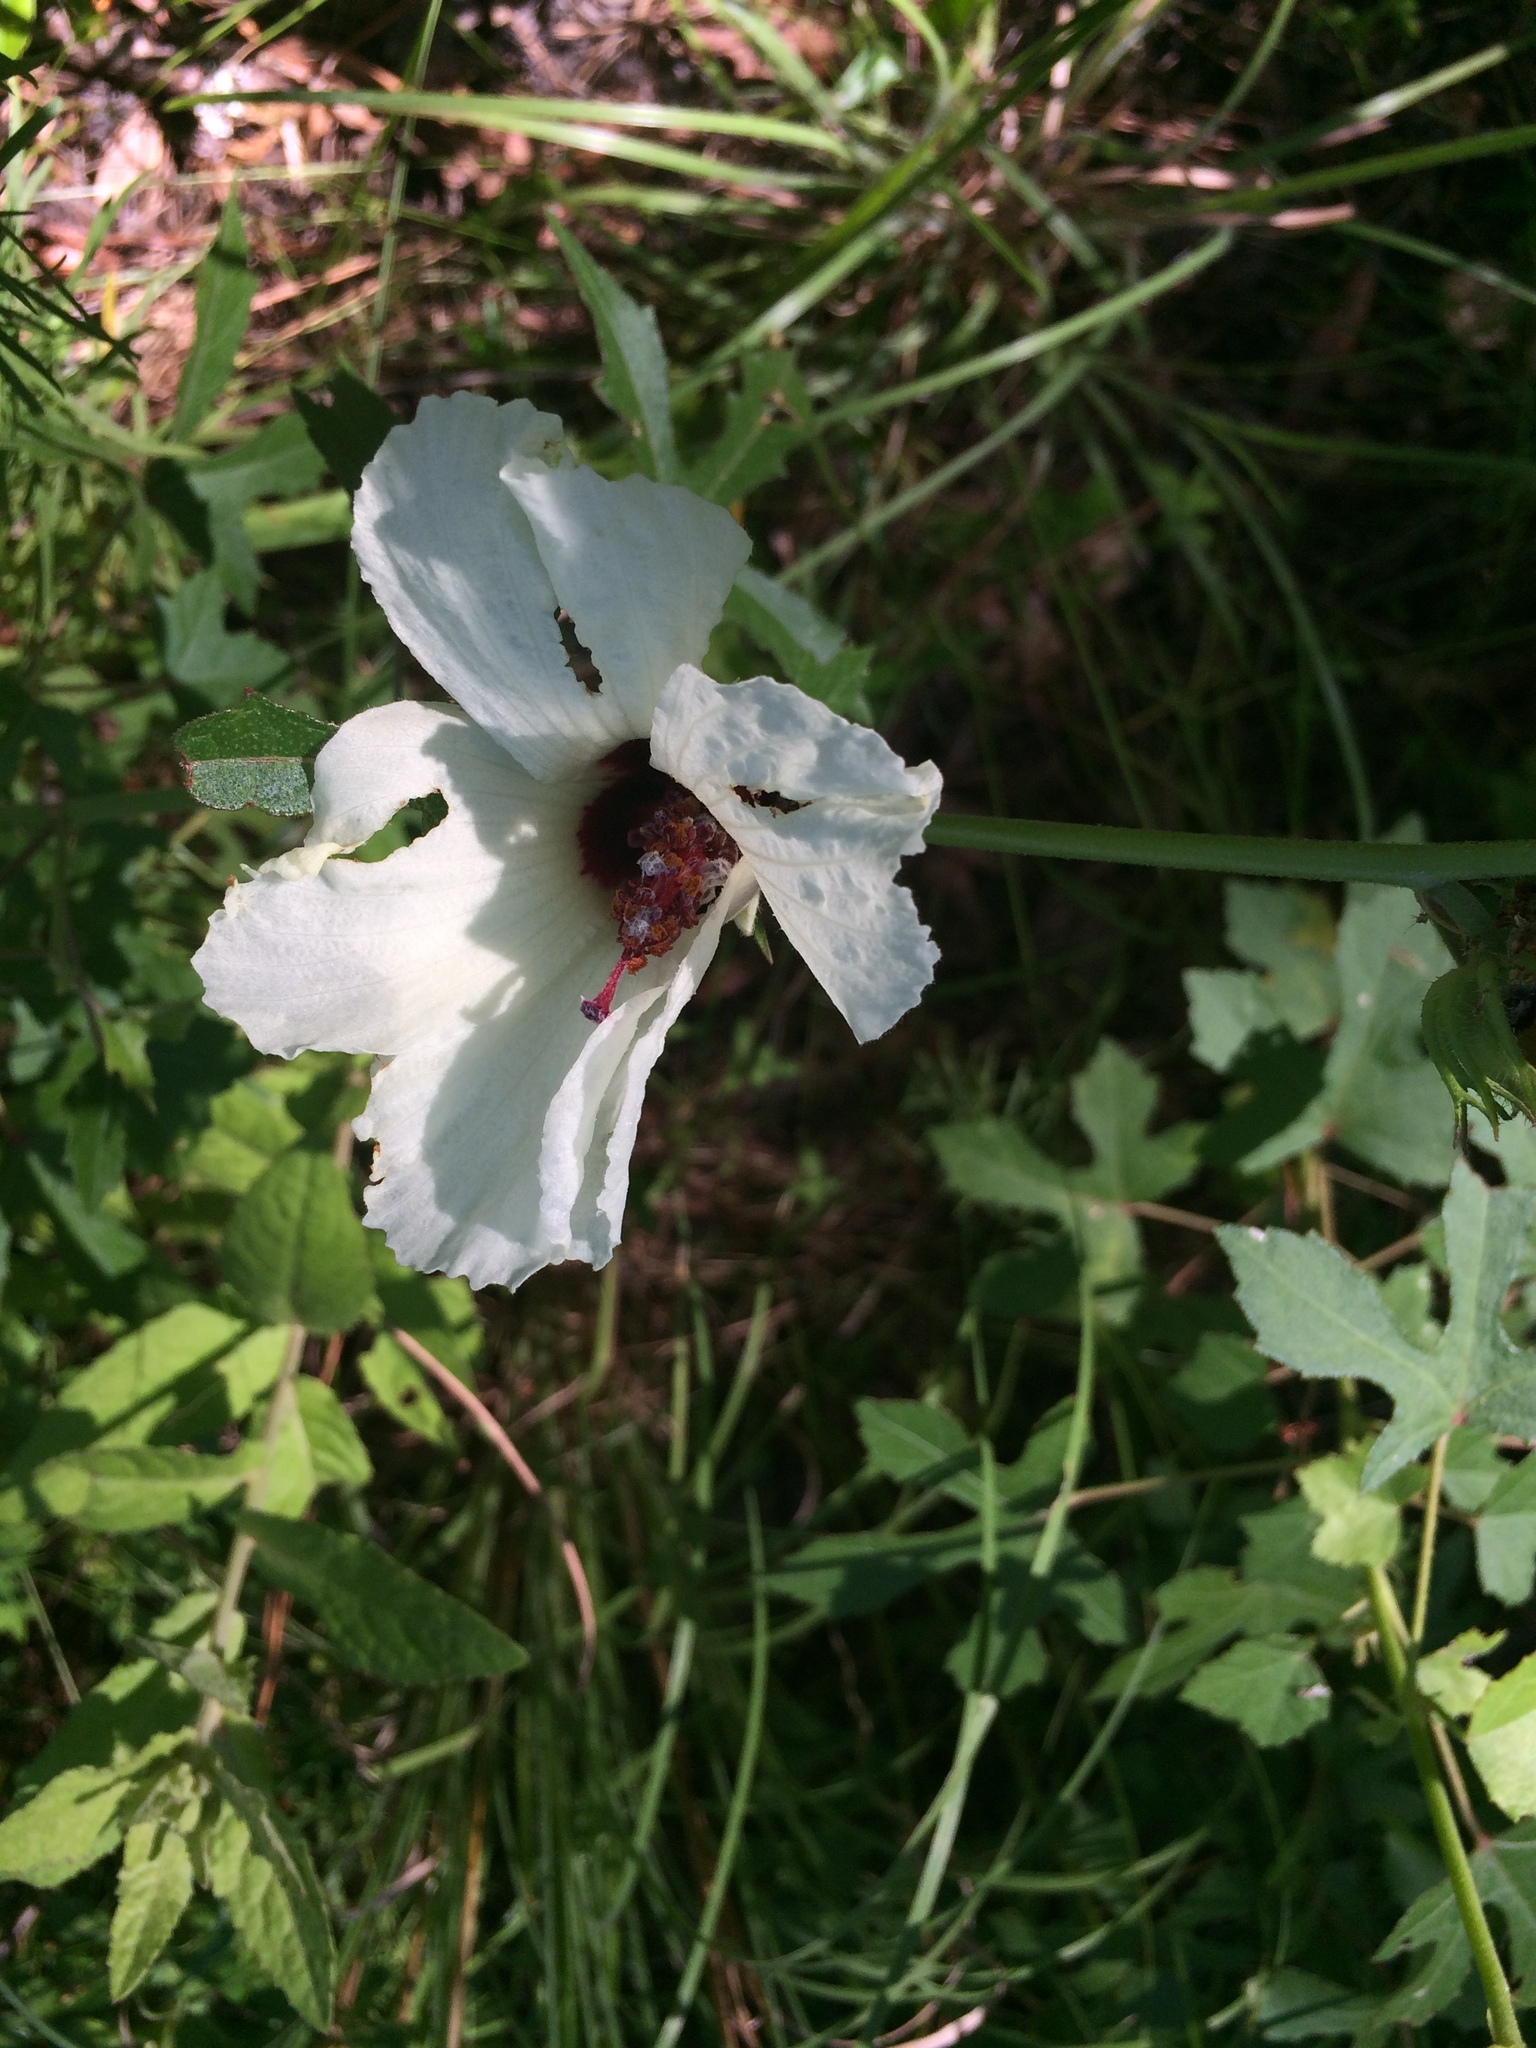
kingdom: Plantae
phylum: Tracheophyta
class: Magnoliopsida
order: Malvales
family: Malvaceae
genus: Hibiscus
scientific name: Hibiscus aculeatus
